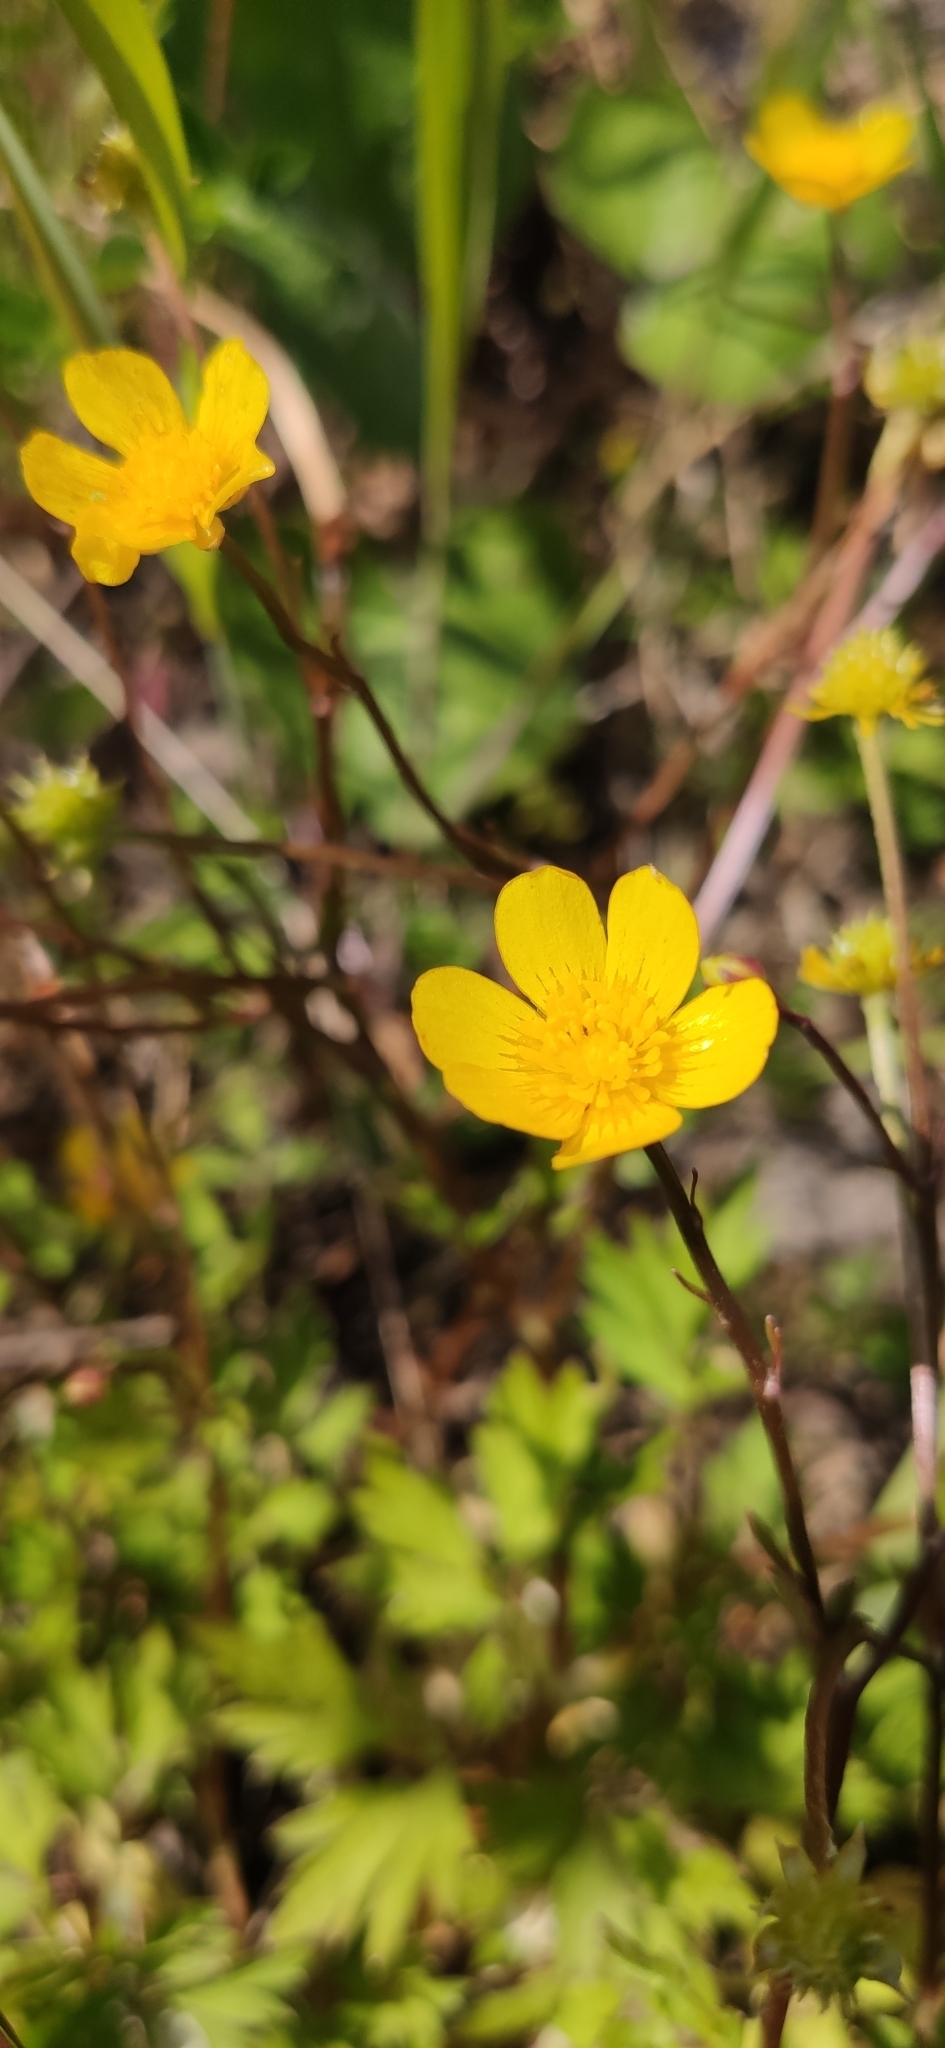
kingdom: Plantae
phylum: Tracheophyta
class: Magnoliopsida
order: Ranunculales
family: Ranunculaceae
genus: Ranunculus
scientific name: Ranunculus repens
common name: Creeping buttercup
